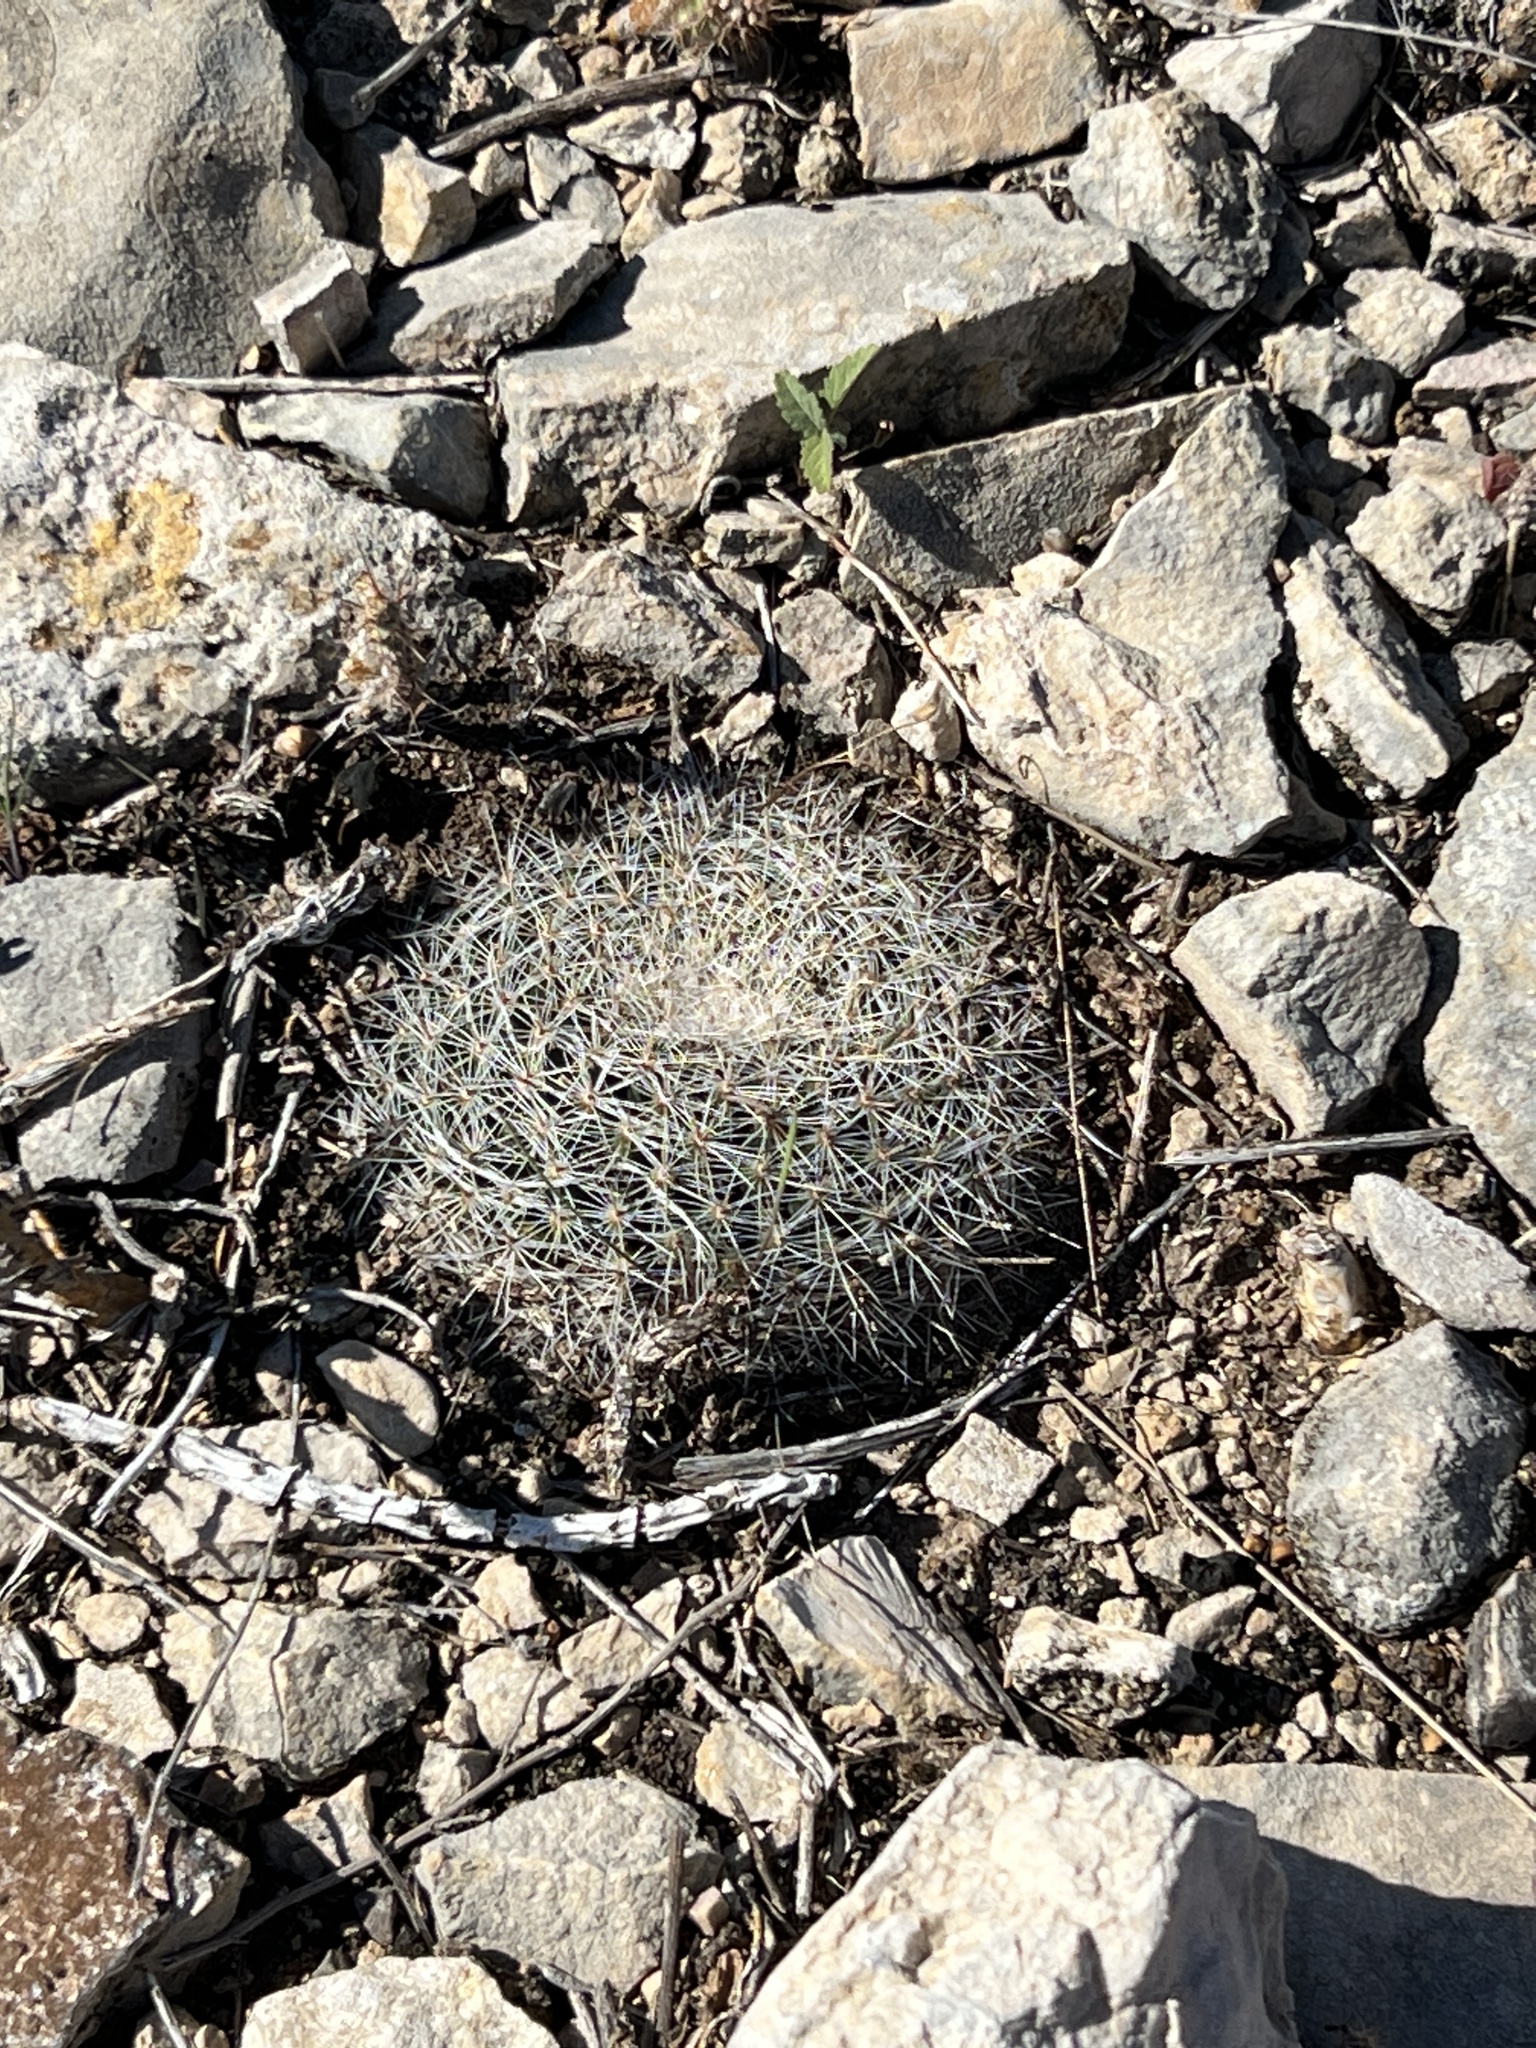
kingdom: Plantae
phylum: Tracheophyta
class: Magnoliopsida
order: Caryophyllales
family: Cactaceae
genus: Mammillaria
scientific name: Mammillaria heyderi
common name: Little nipple cactus
